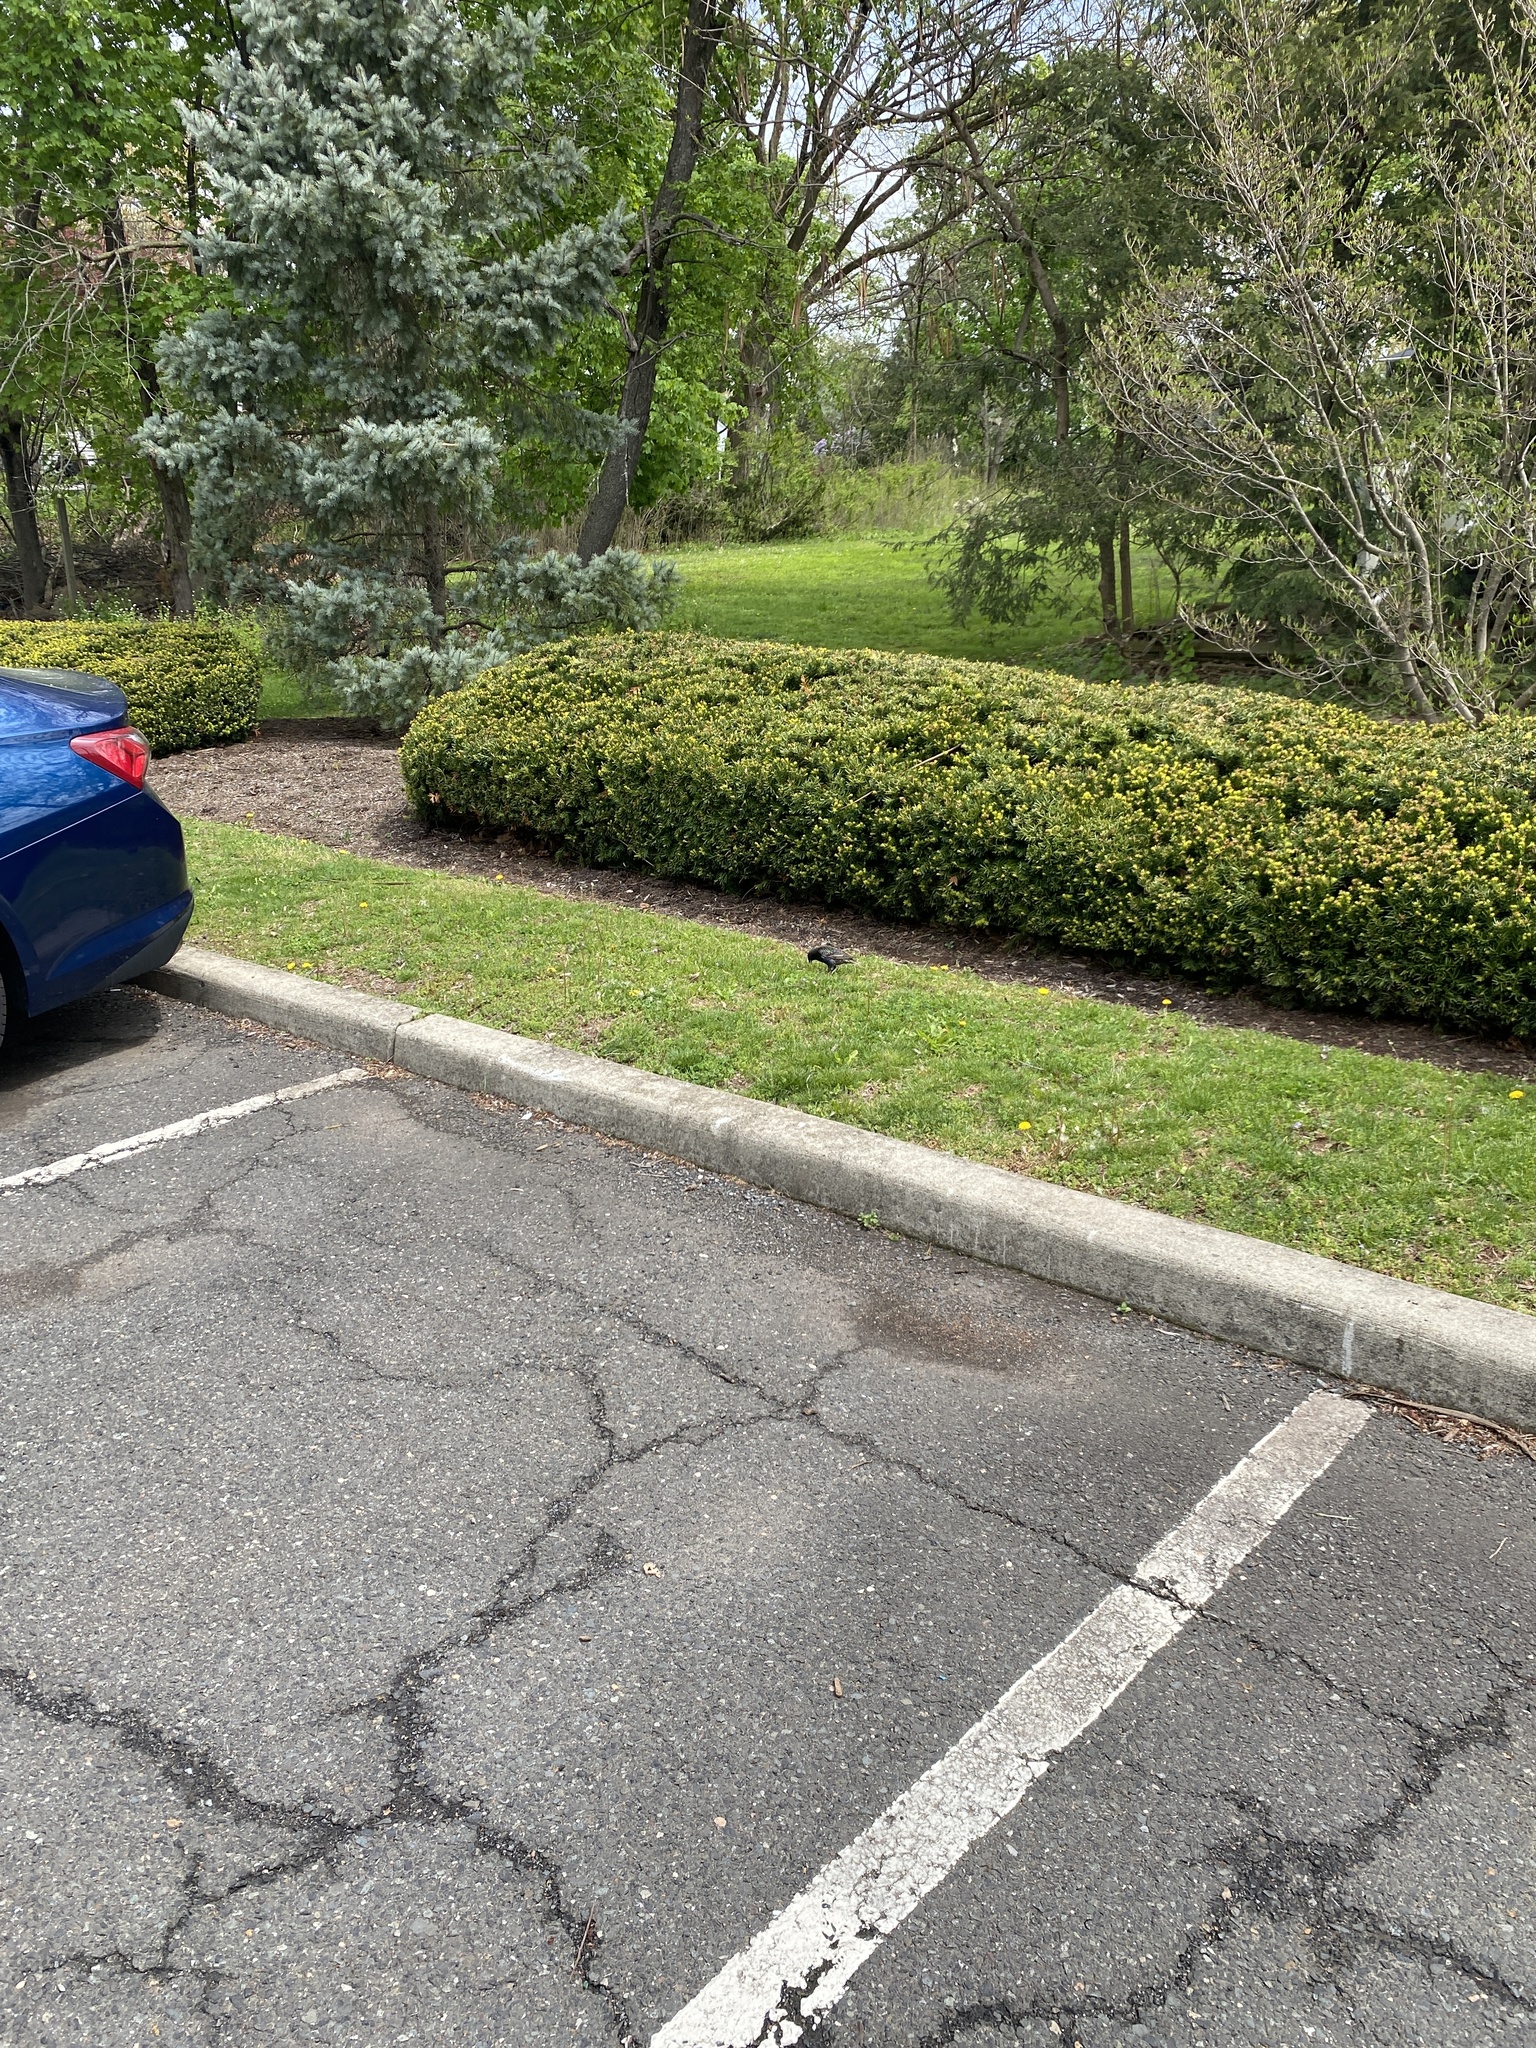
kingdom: Animalia
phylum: Chordata
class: Aves
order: Passeriformes
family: Sturnidae
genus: Sturnus
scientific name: Sturnus vulgaris
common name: Common starling
